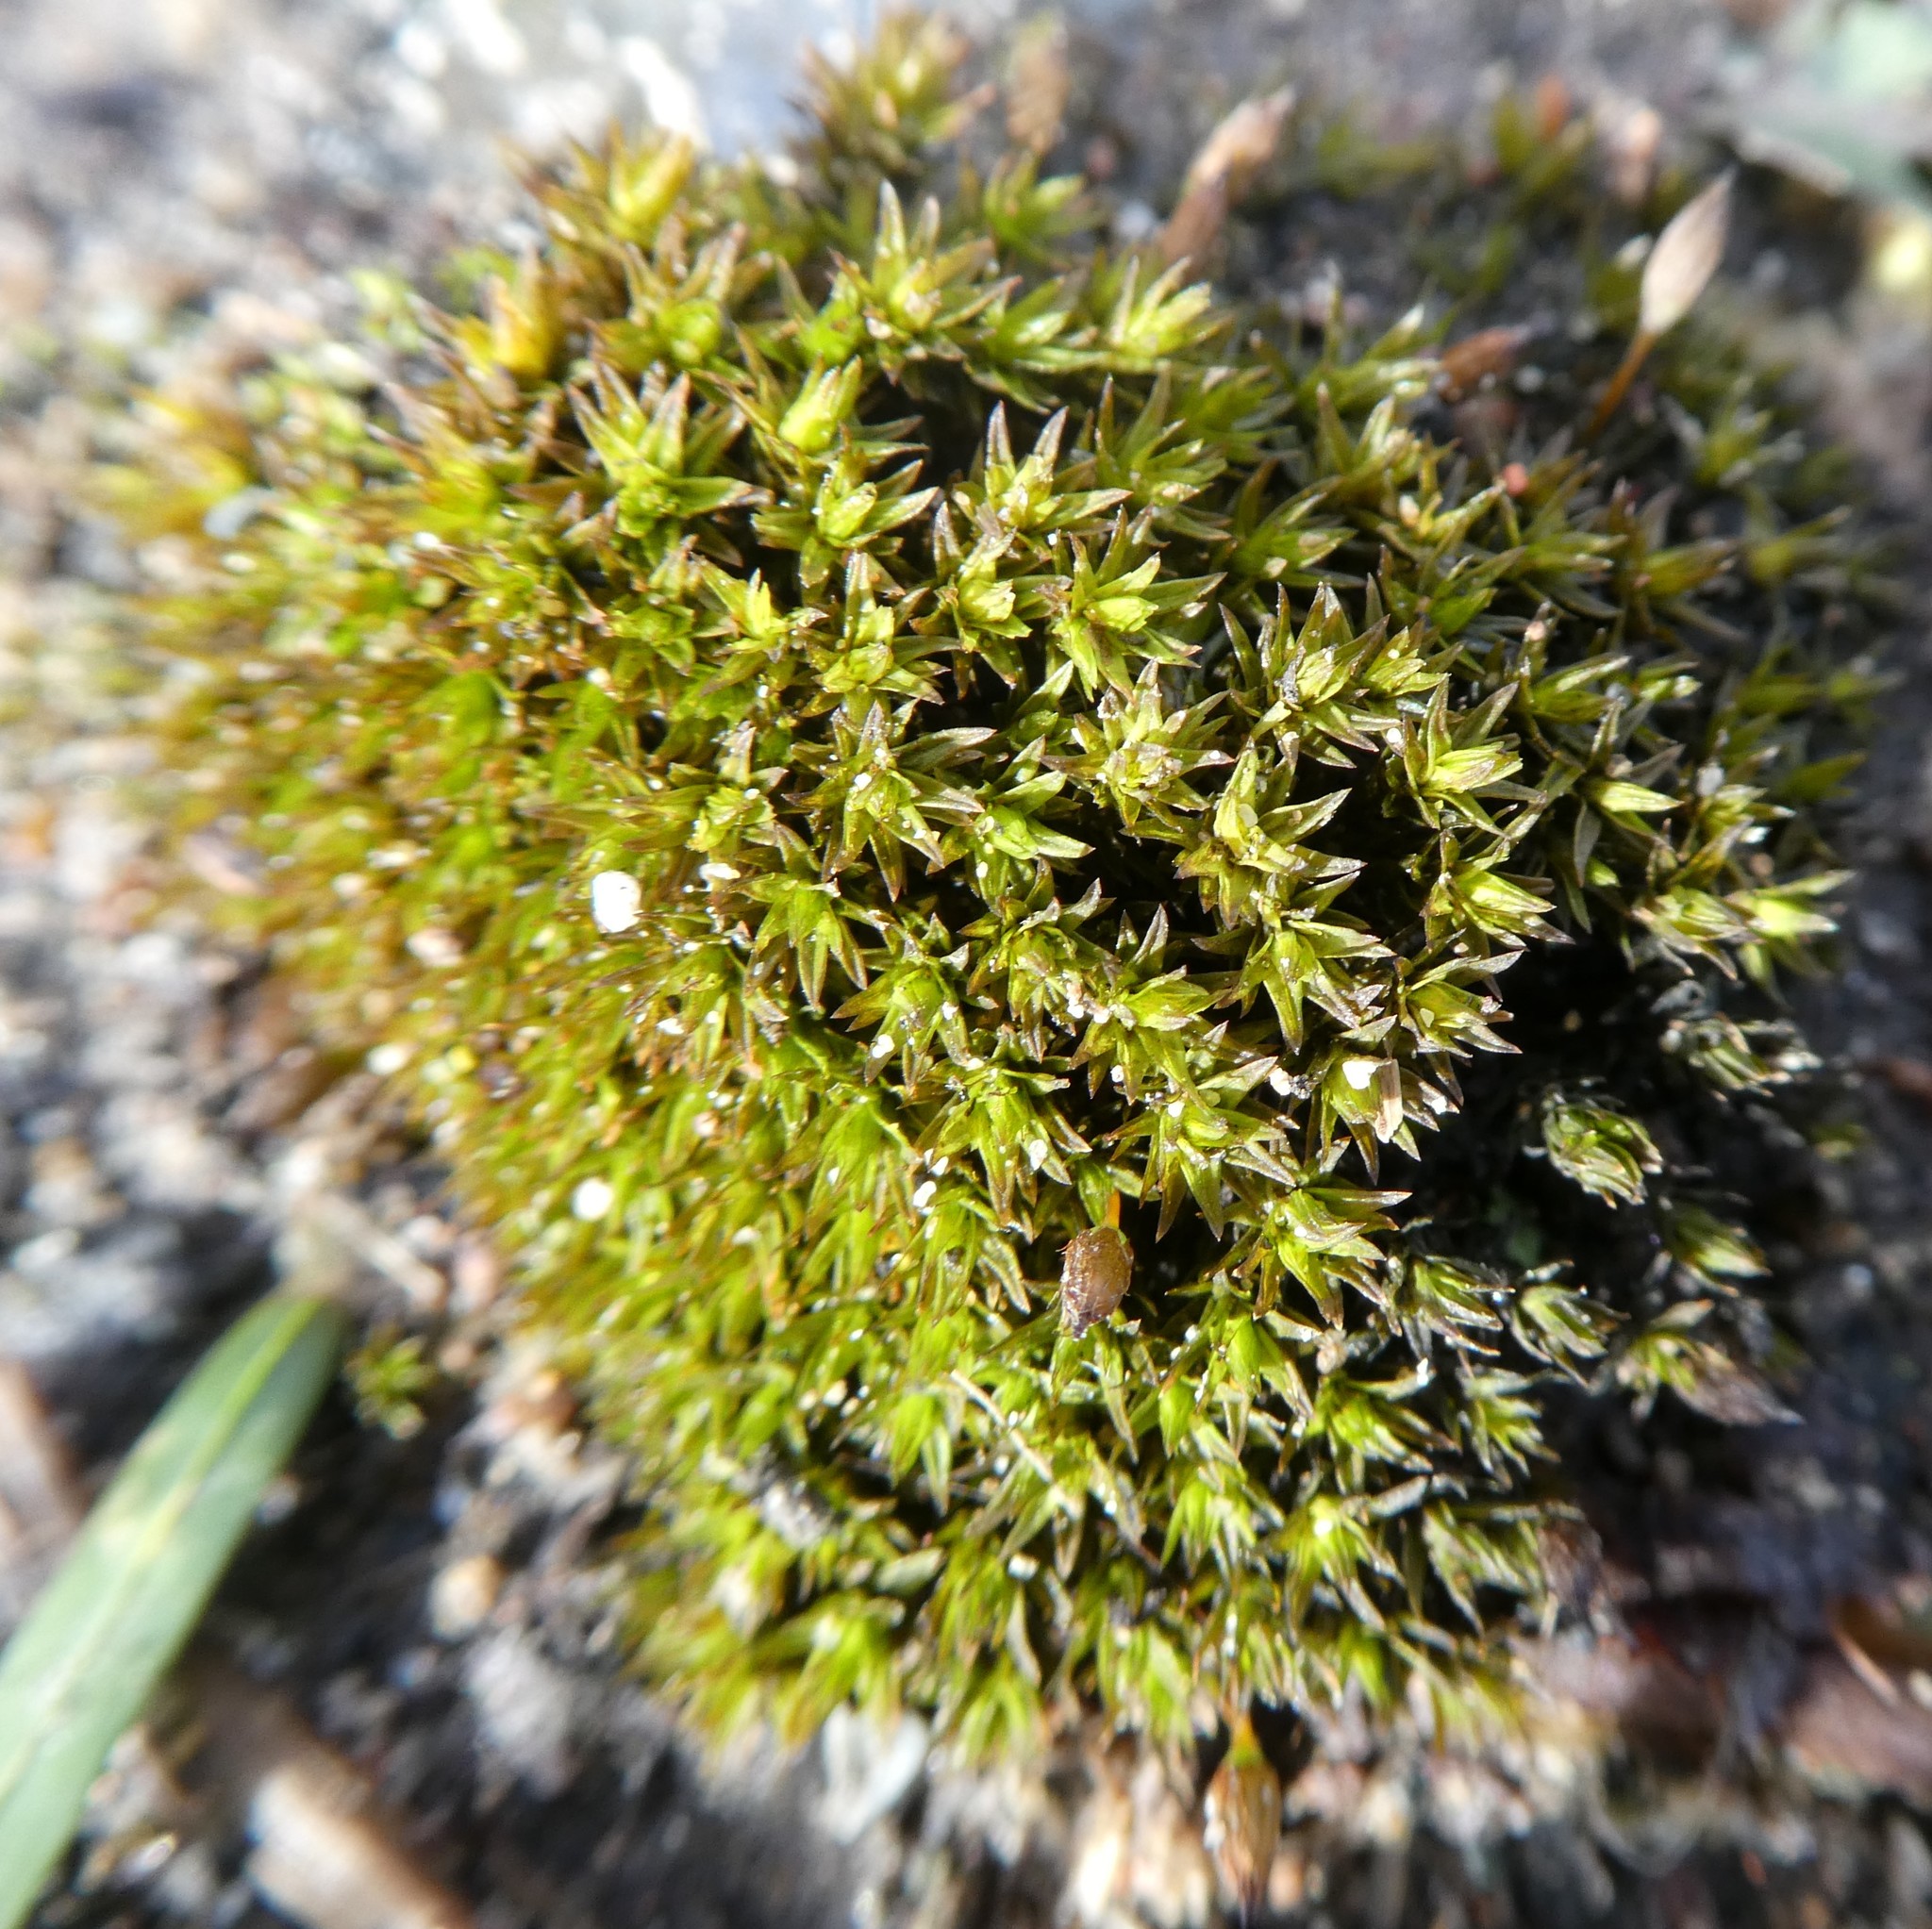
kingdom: Plantae
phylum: Bryophyta
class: Bryopsida
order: Pottiales
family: Pottiaceae
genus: Barbula
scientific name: Barbula unguiculata
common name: Prickly beard moss
